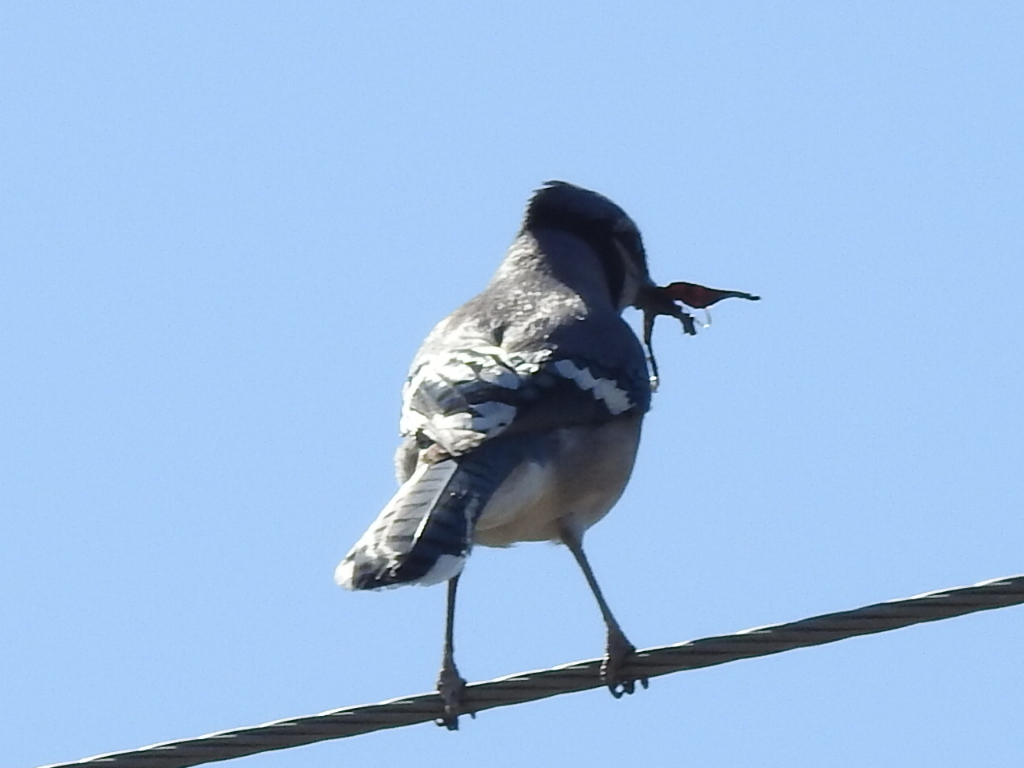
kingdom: Animalia
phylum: Chordata
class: Aves
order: Passeriformes
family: Corvidae
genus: Cyanocitta
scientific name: Cyanocitta cristata
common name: Blue jay
